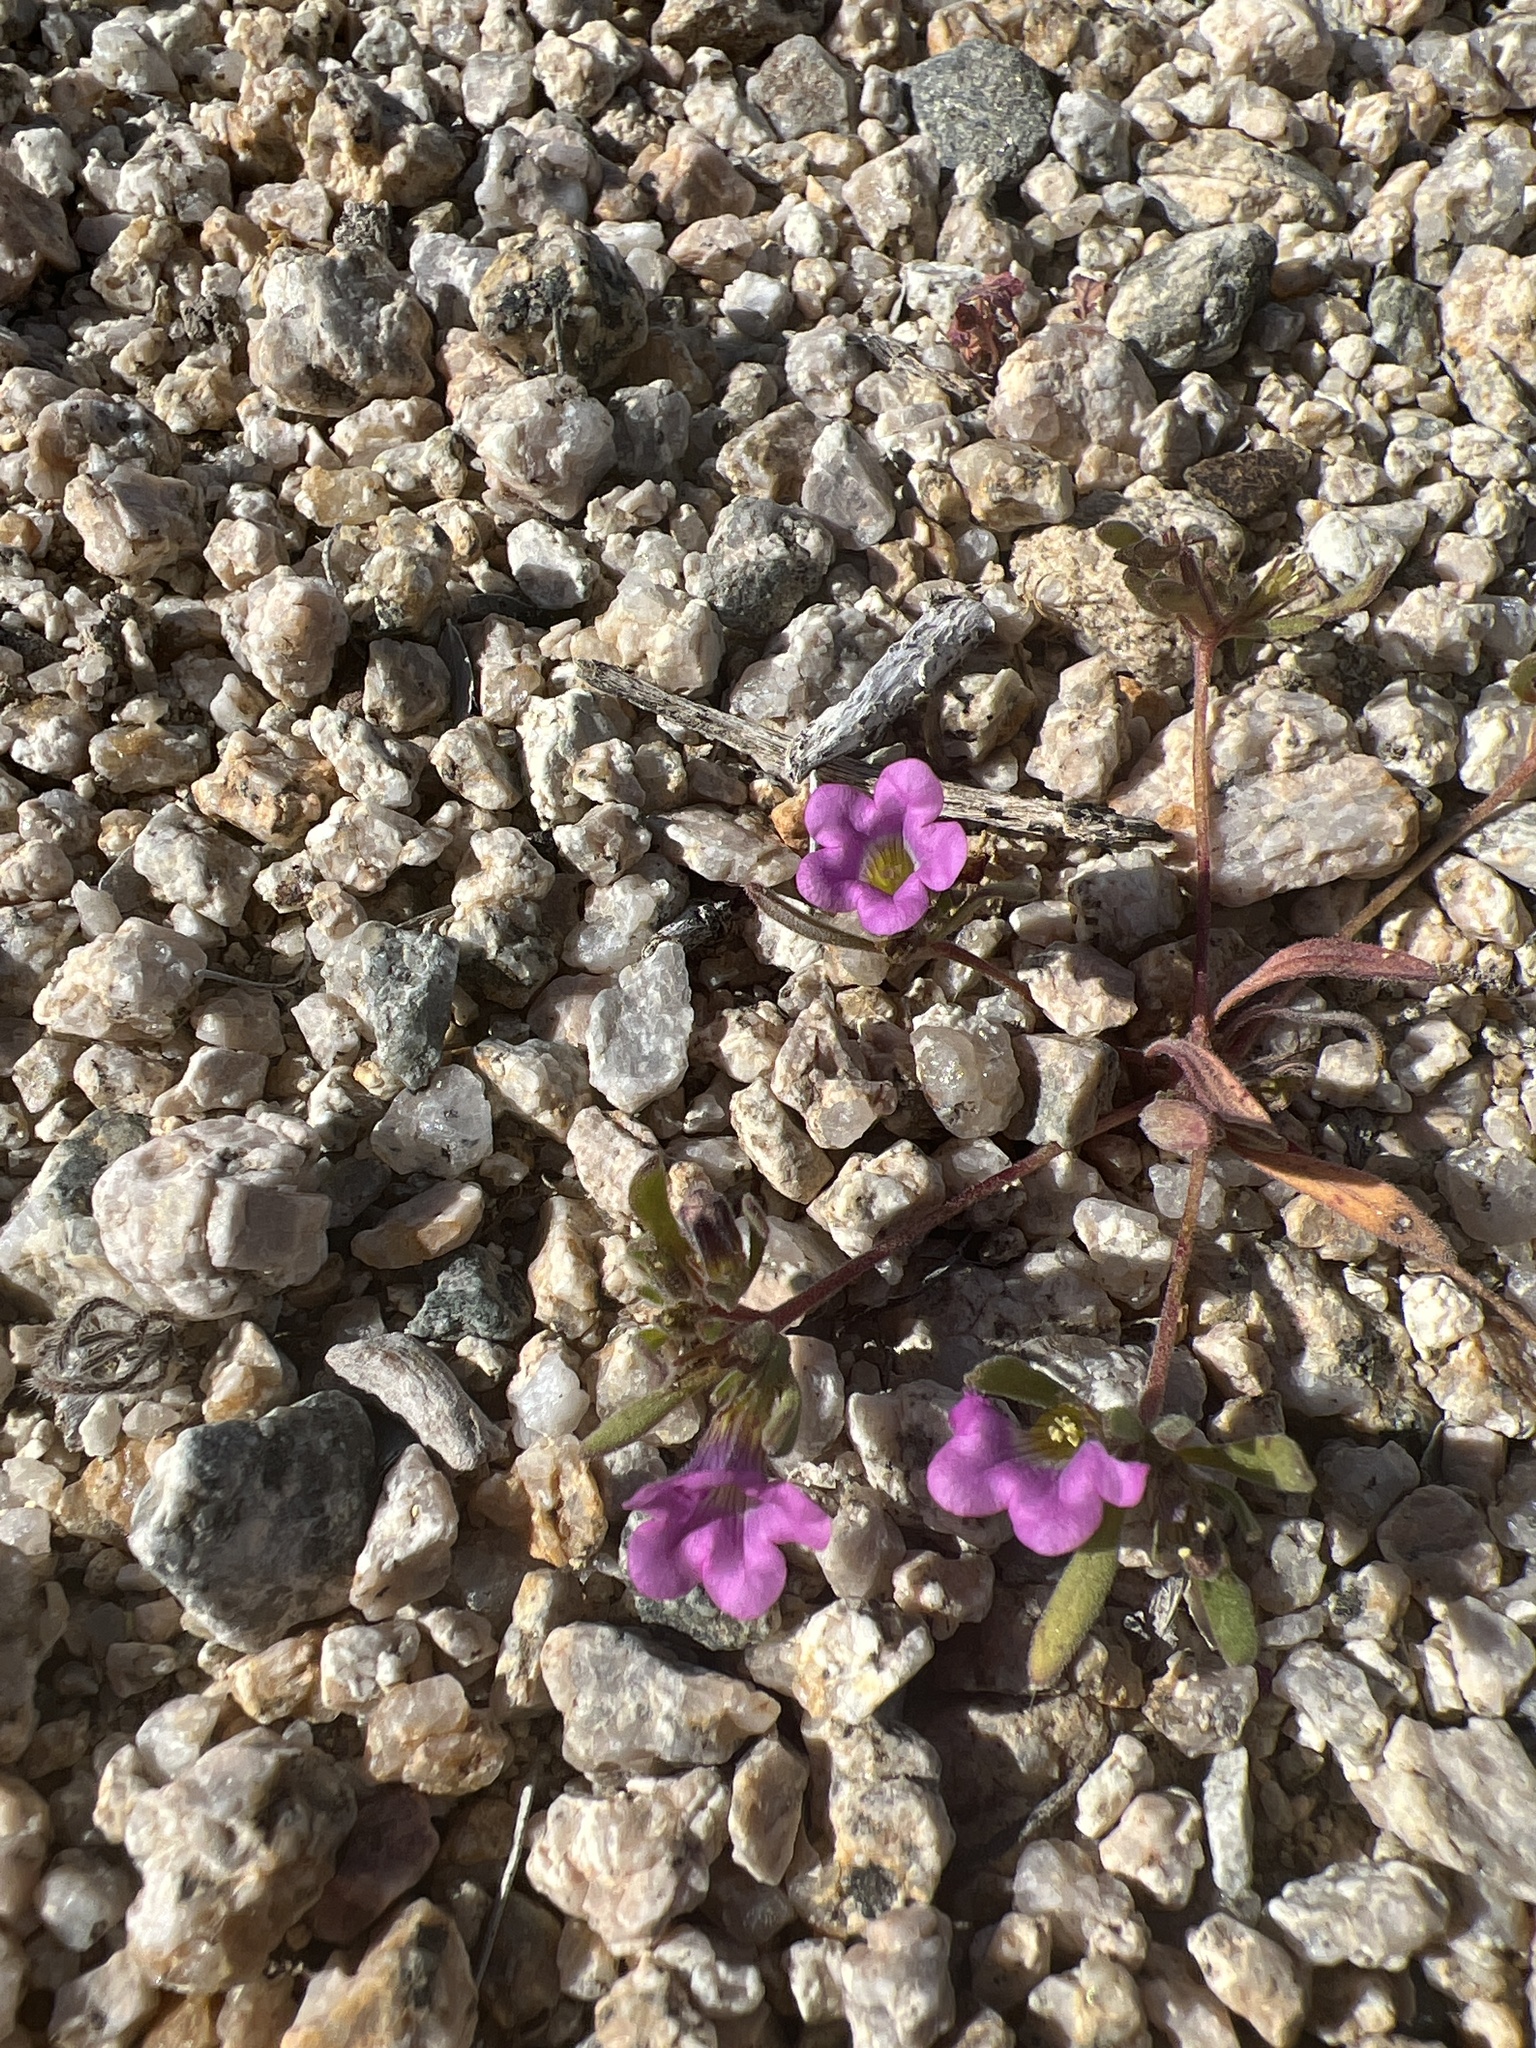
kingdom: Plantae
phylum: Tracheophyta
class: Magnoliopsida
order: Boraginales
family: Namaceae
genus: Nama
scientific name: Nama demissa
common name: Leafy nama
